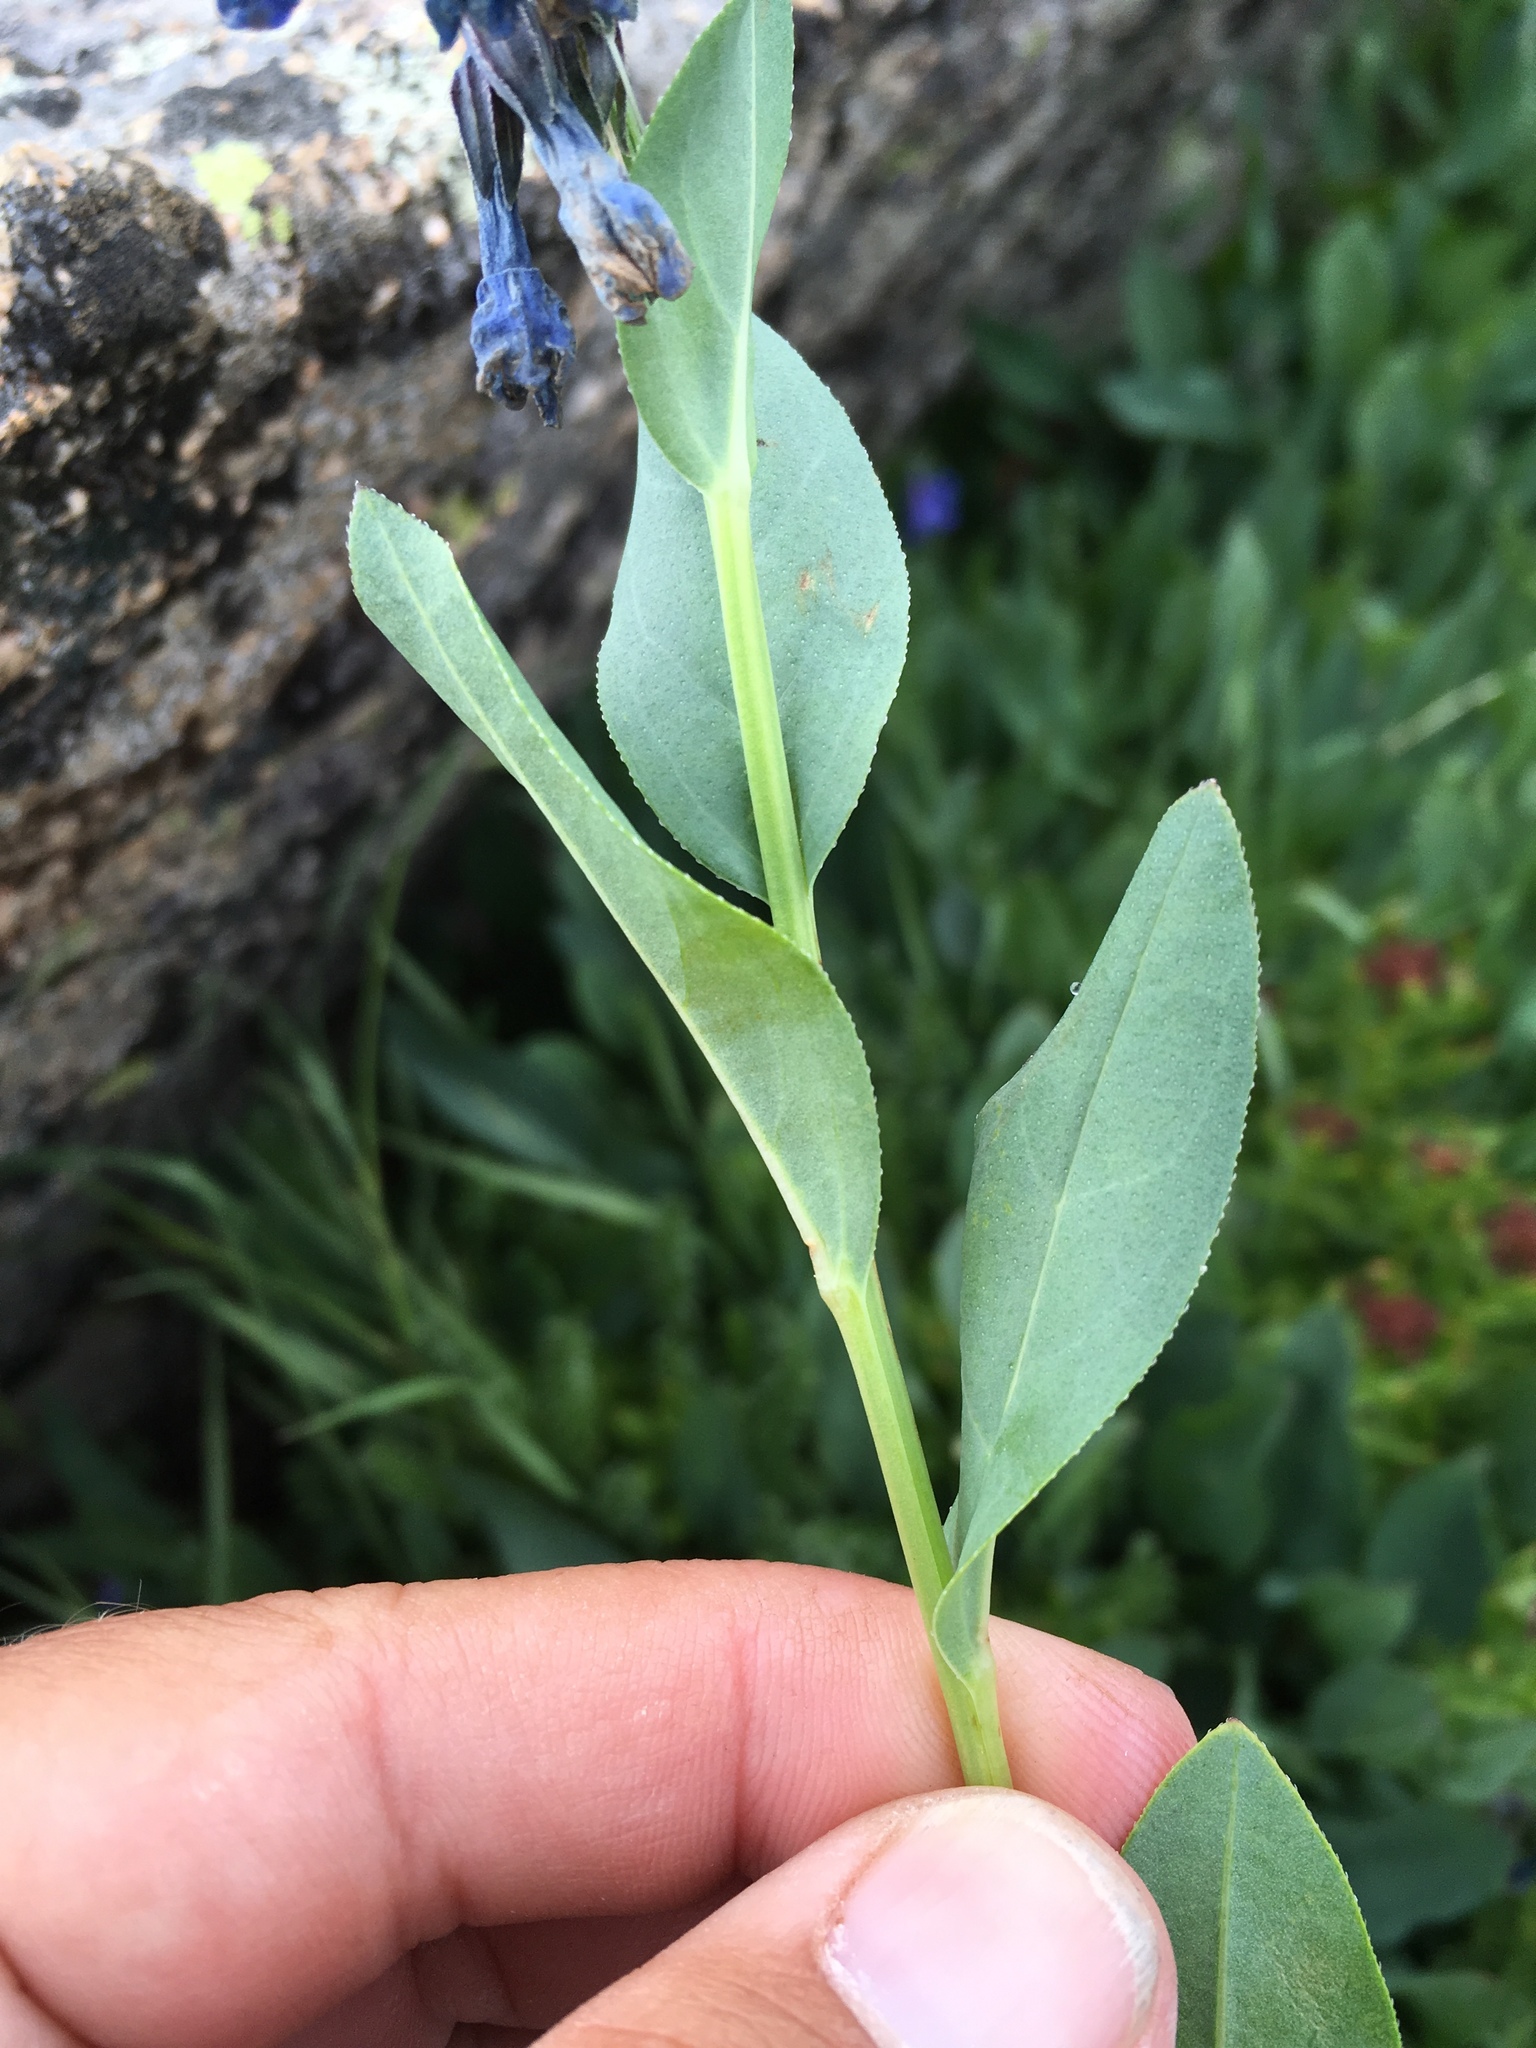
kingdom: Plantae
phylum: Tracheophyta
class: Magnoliopsida
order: Boraginales
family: Boraginaceae
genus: Mertensia
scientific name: Mertensia ovata
